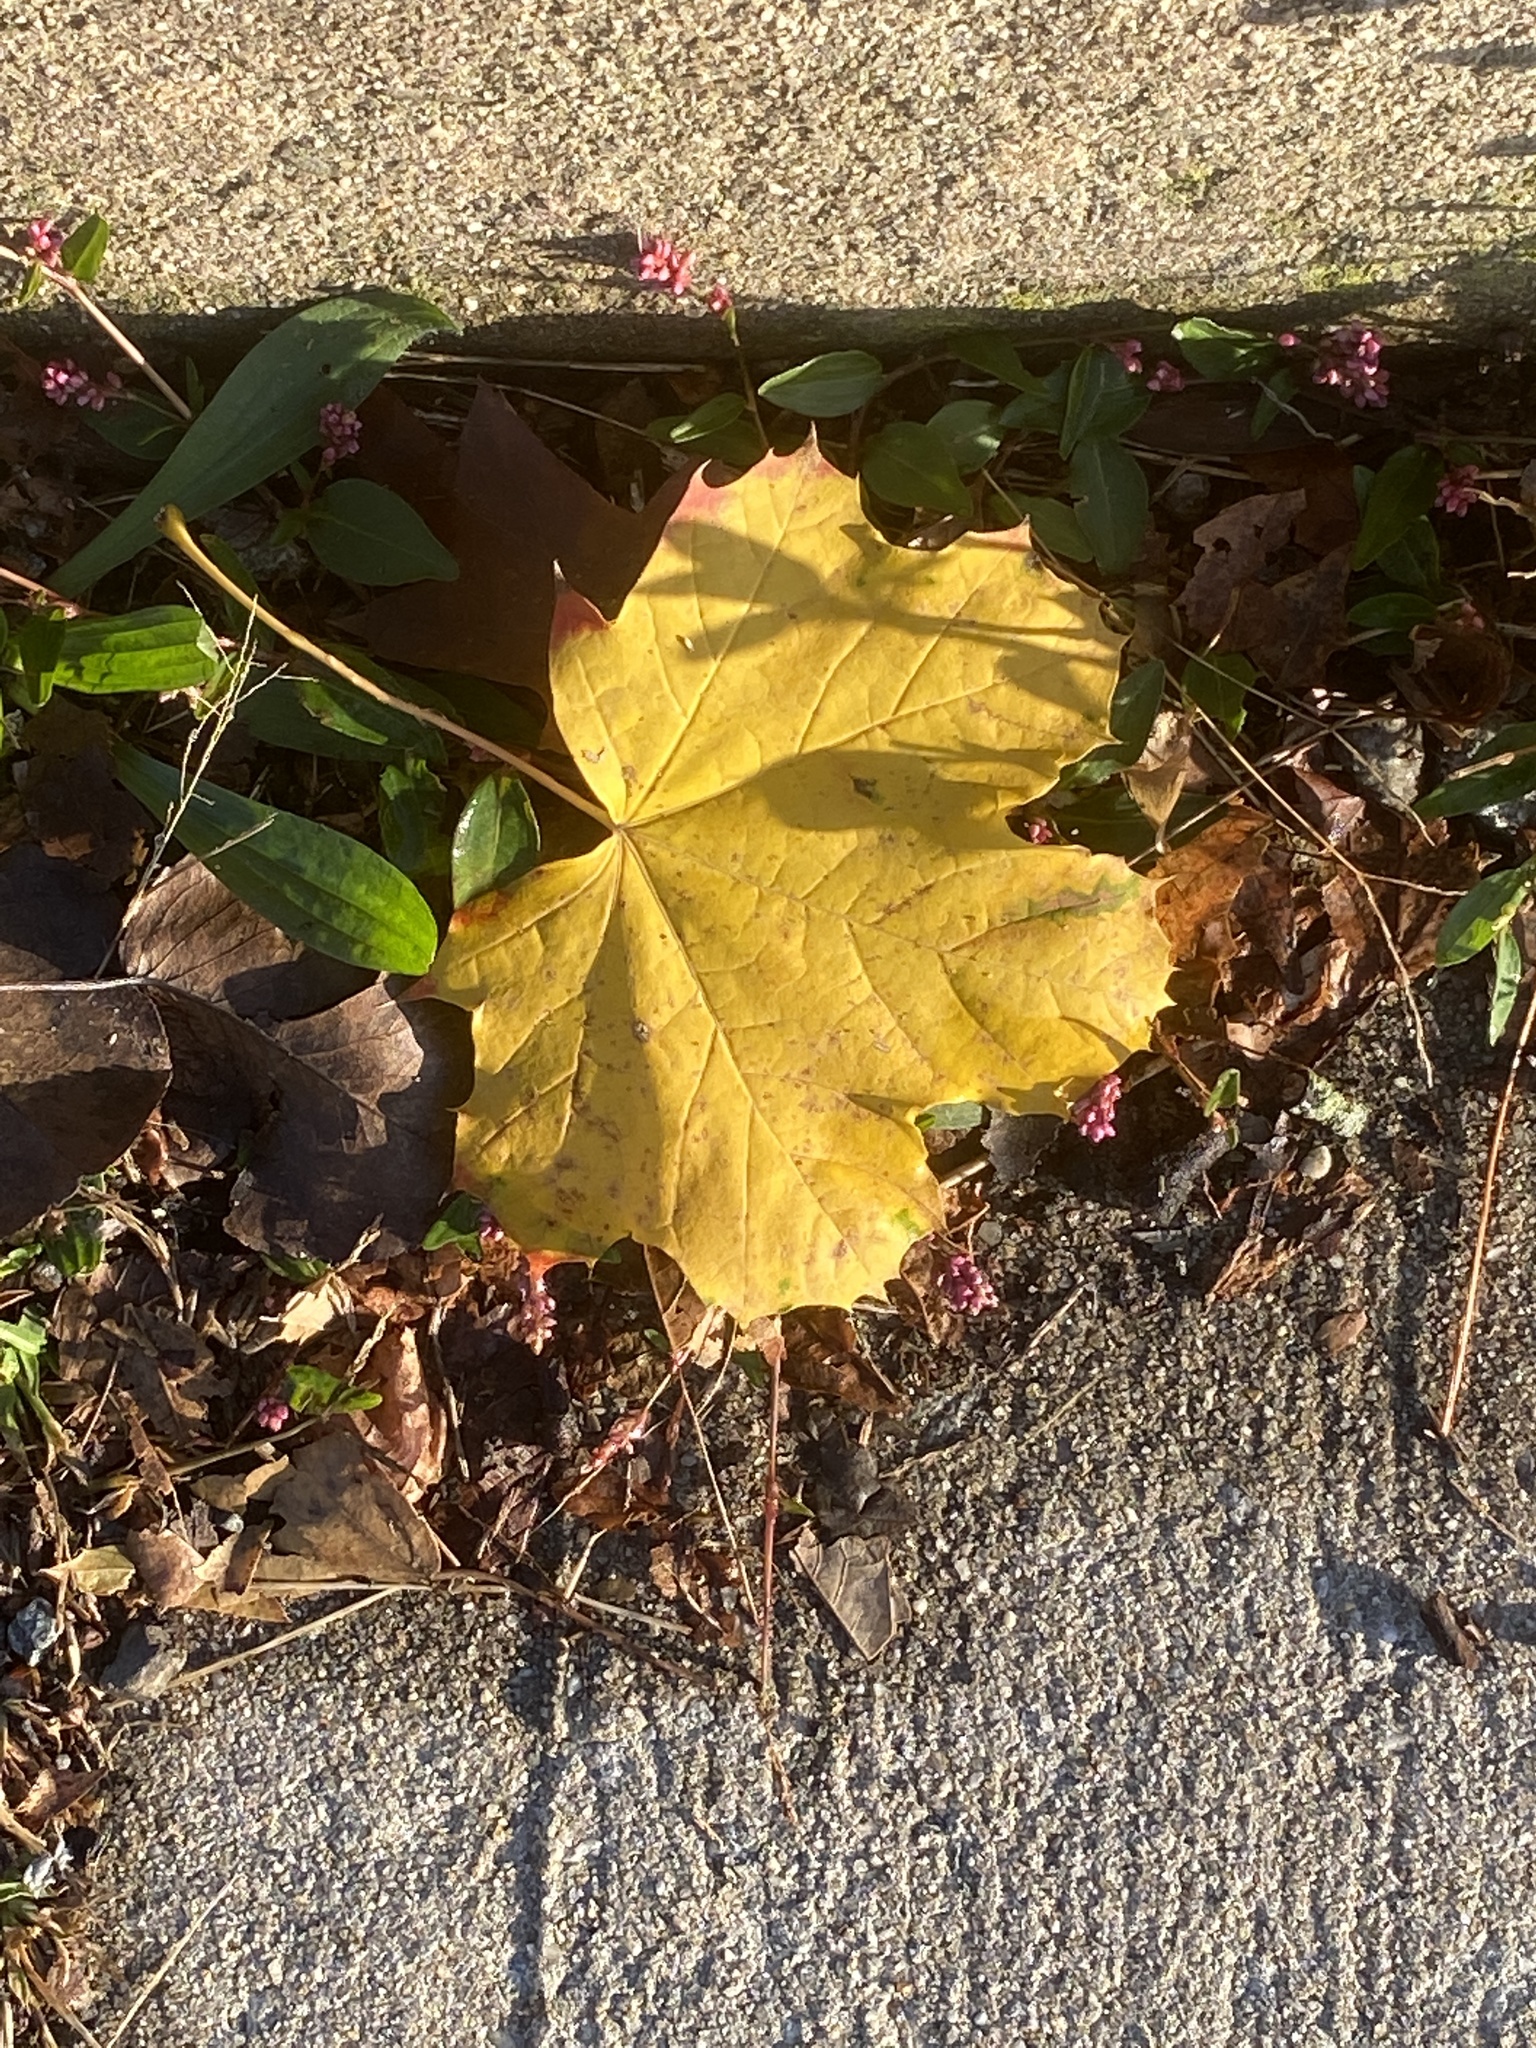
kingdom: Plantae
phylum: Tracheophyta
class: Magnoliopsida
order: Sapindales
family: Sapindaceae
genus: Acer
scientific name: Acer platanoides
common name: Norway maple
